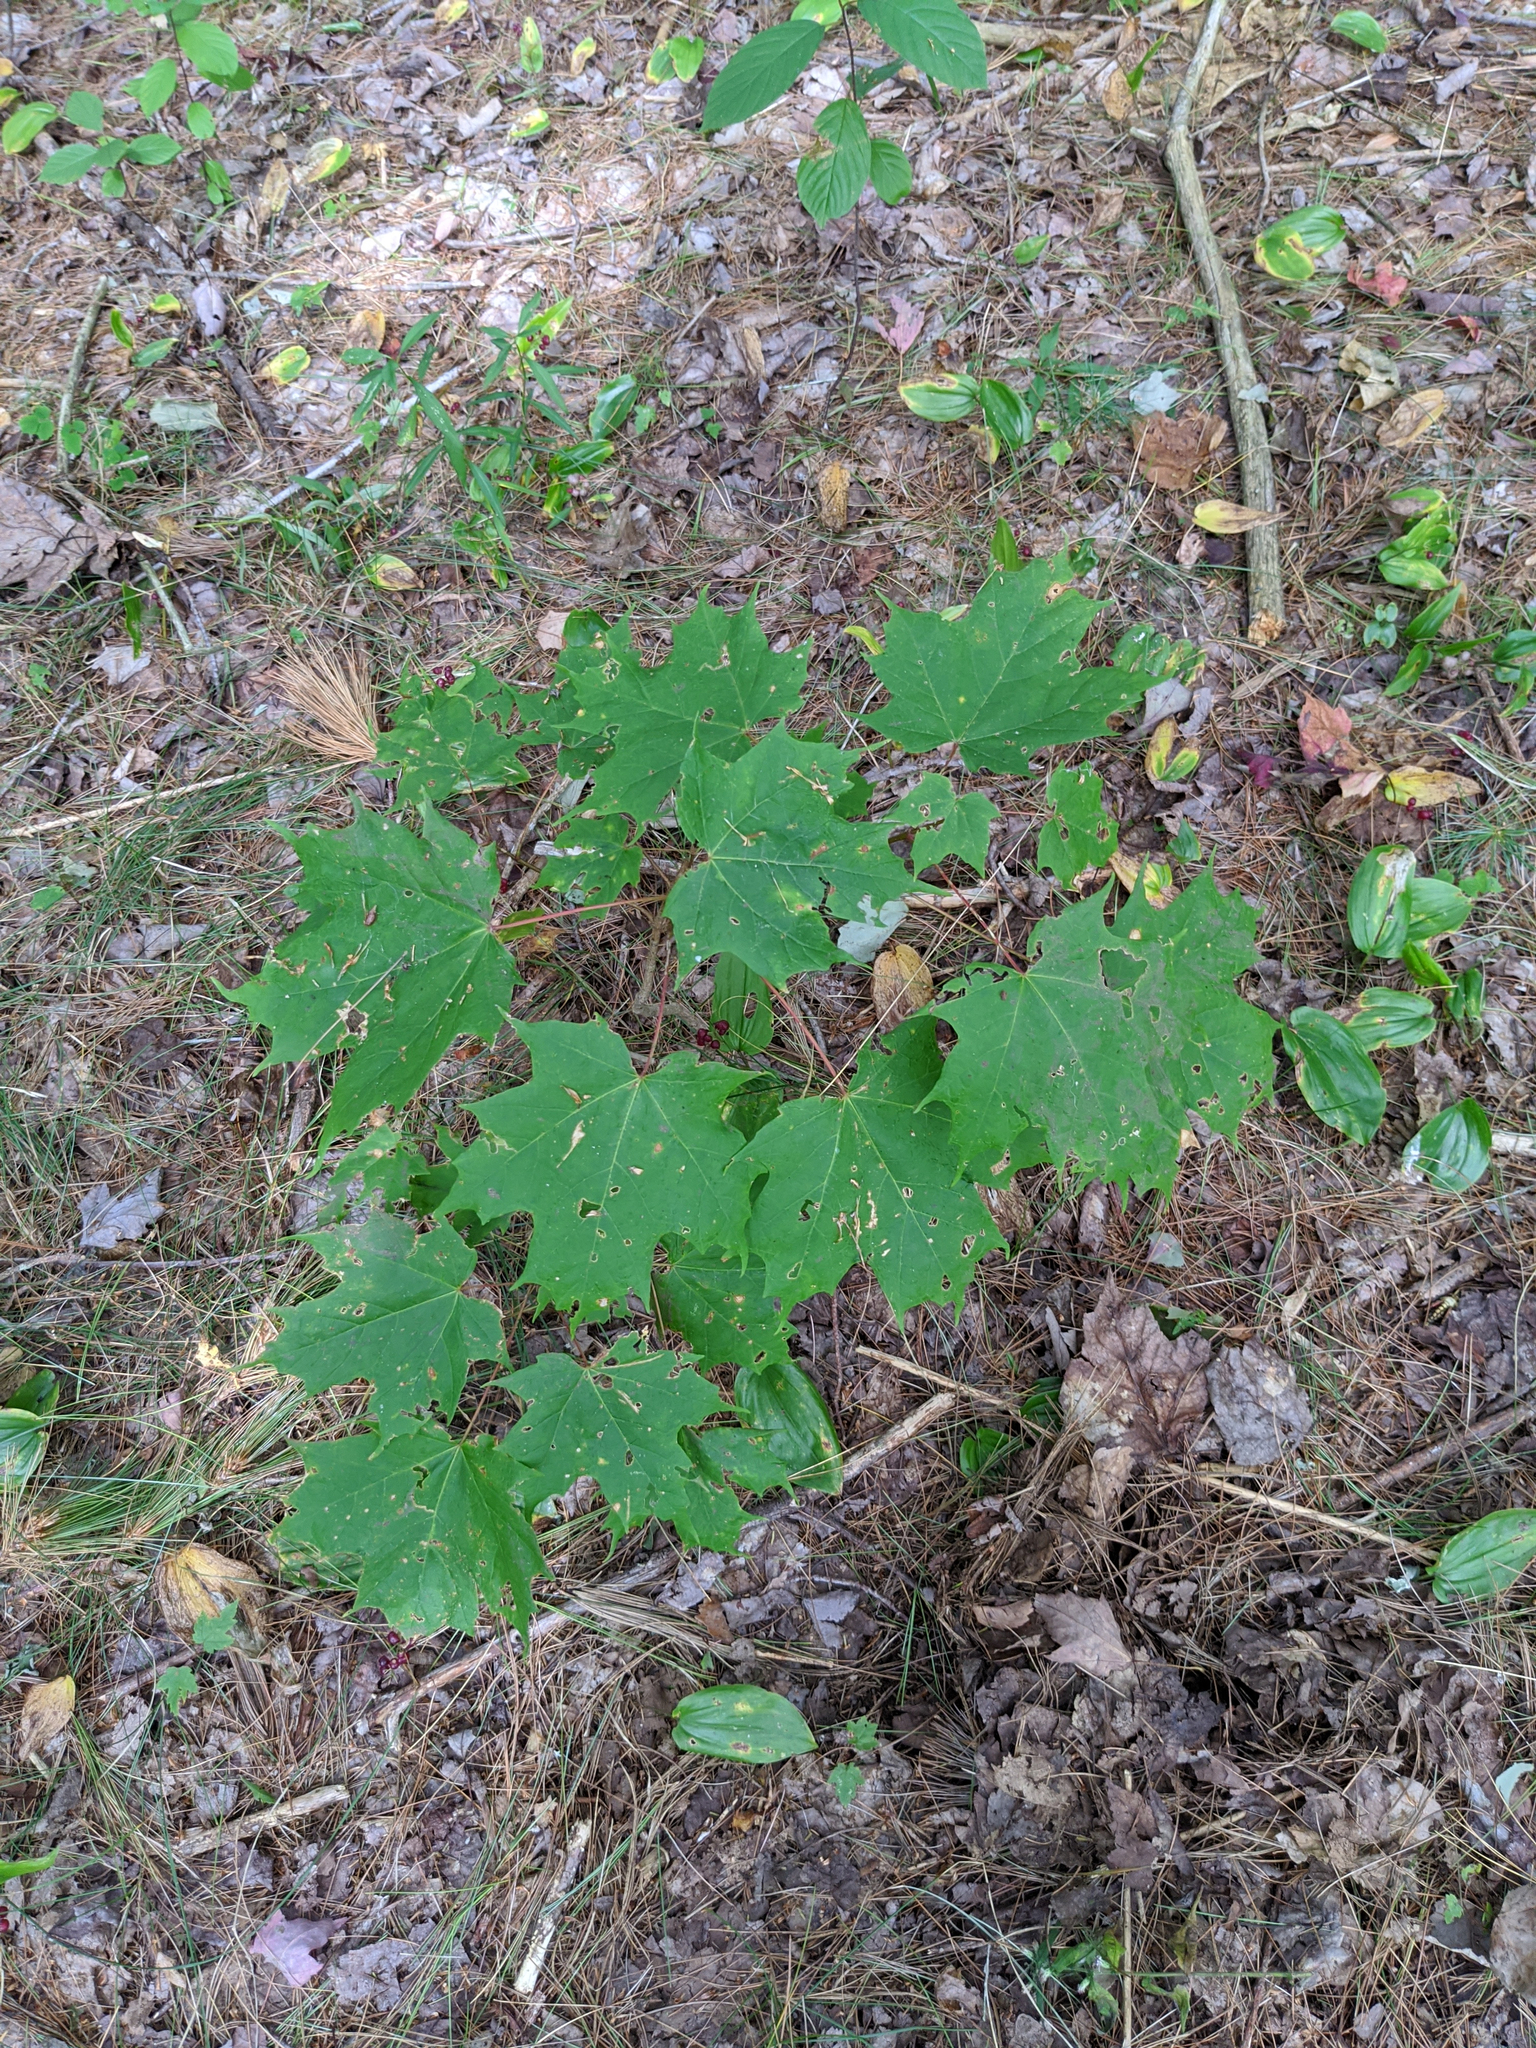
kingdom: Plantae
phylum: Tracheophyta
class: Magnoliopsida
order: Sapindales
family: Sapindaceae
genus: Acer
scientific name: Acer saccharum
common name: Sugar maple
